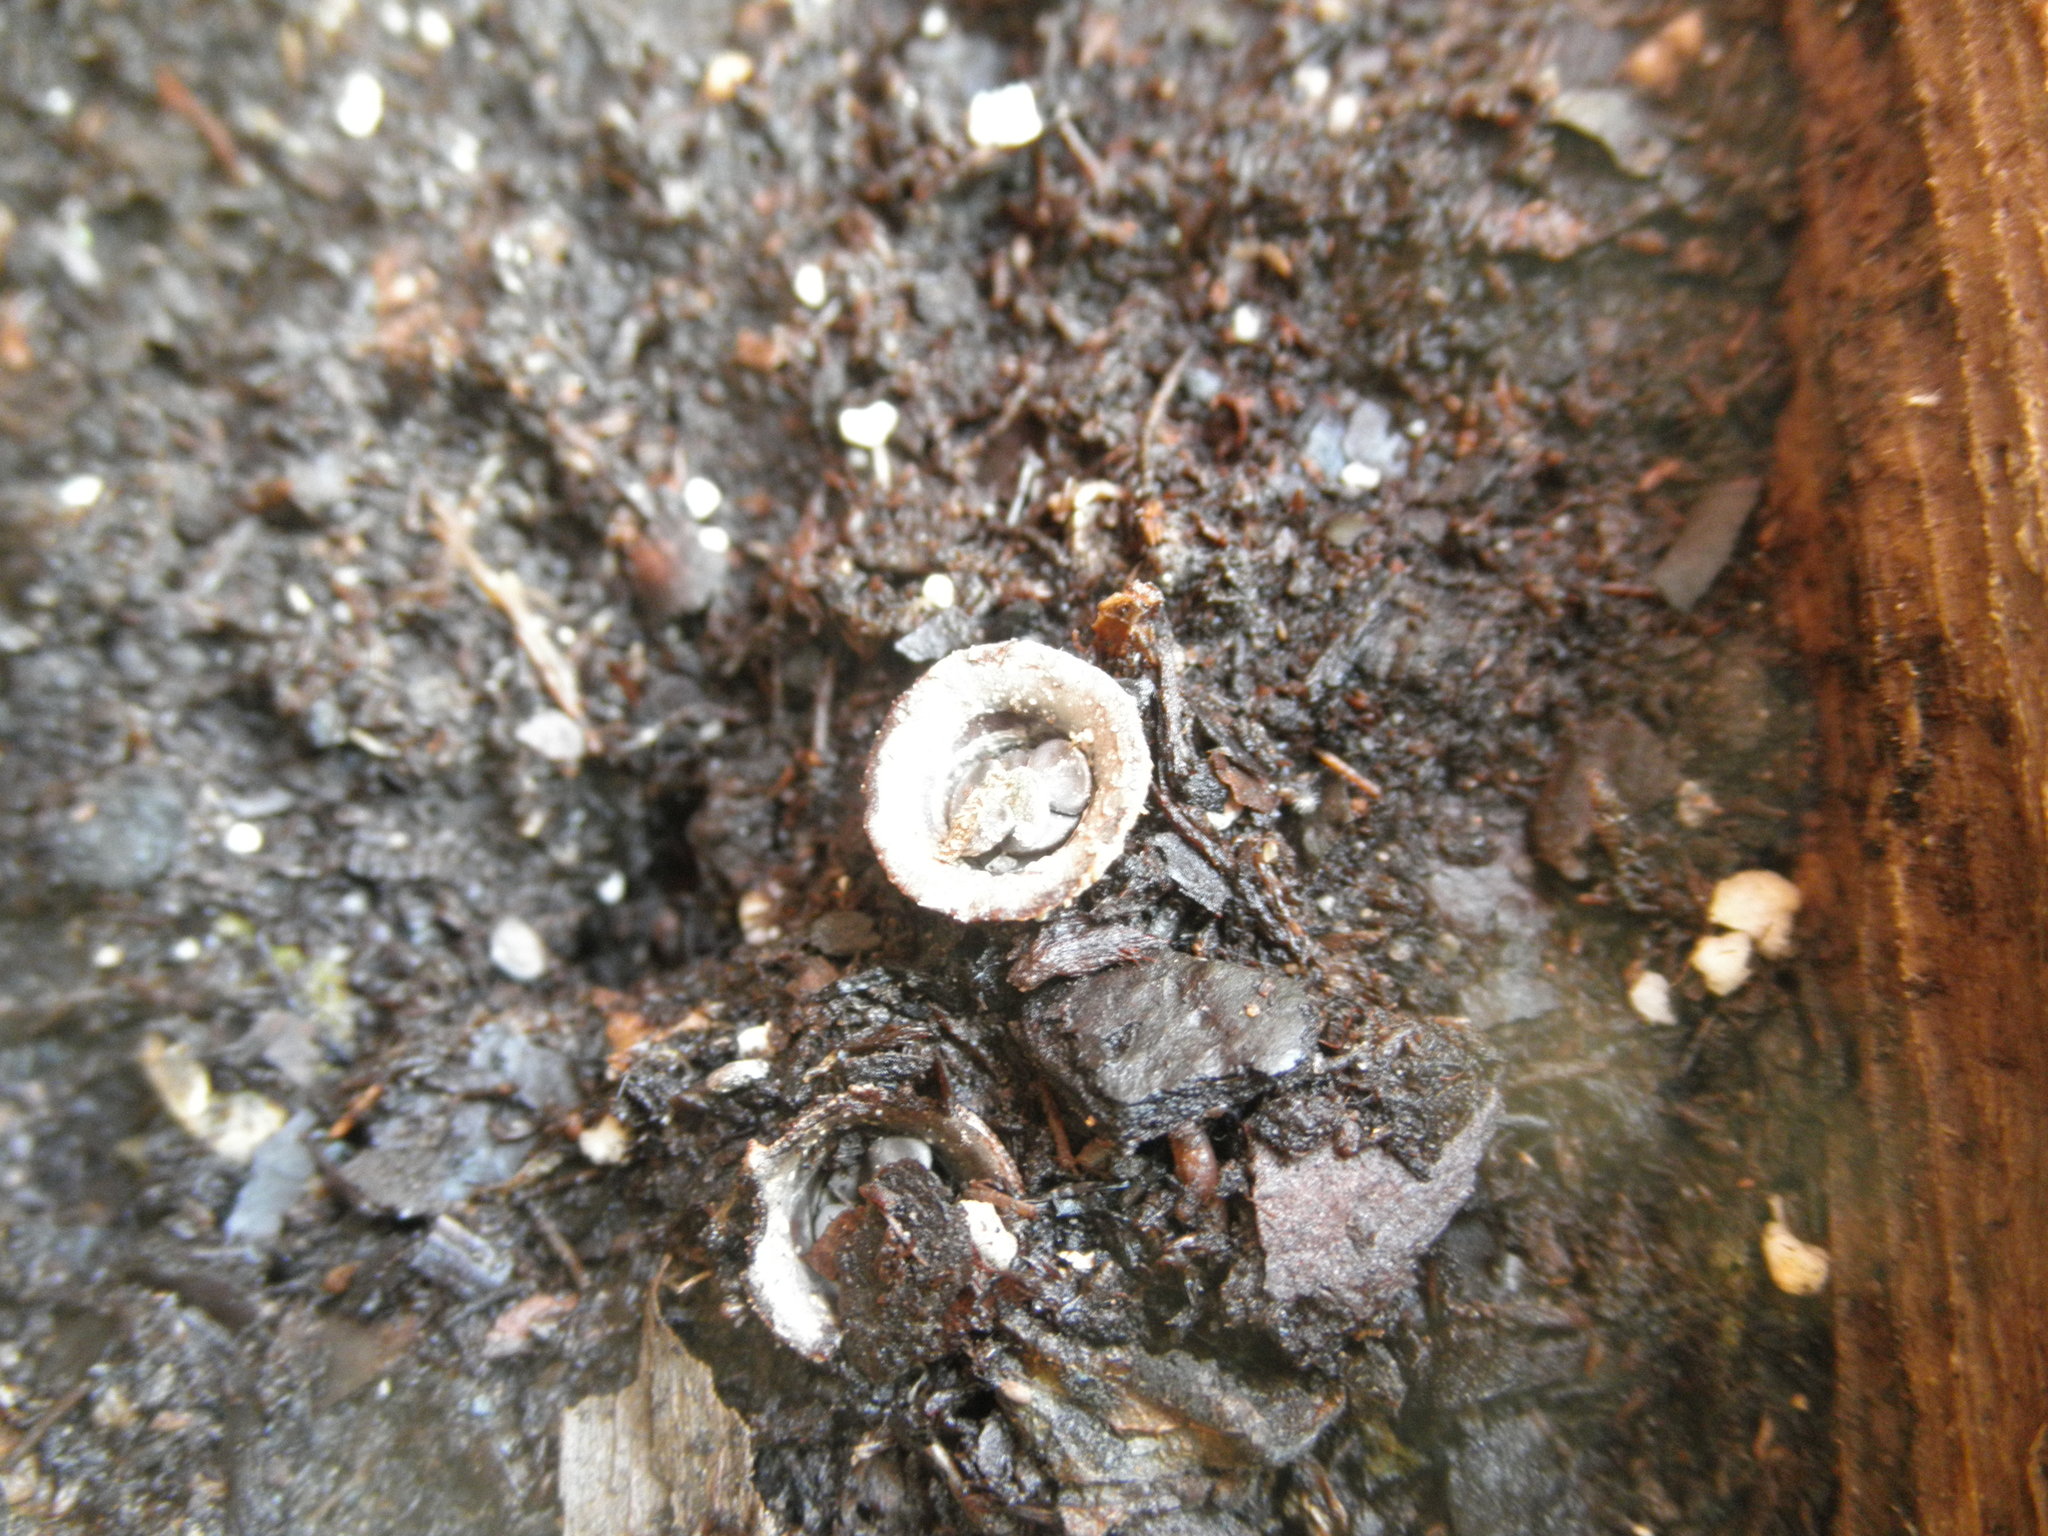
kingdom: Fungi
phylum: Basidiomycota
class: Agaricomycetes
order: Agaricales
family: Agaricaceae
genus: Cyathus
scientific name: Cyathus olla
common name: Field bird's nest
